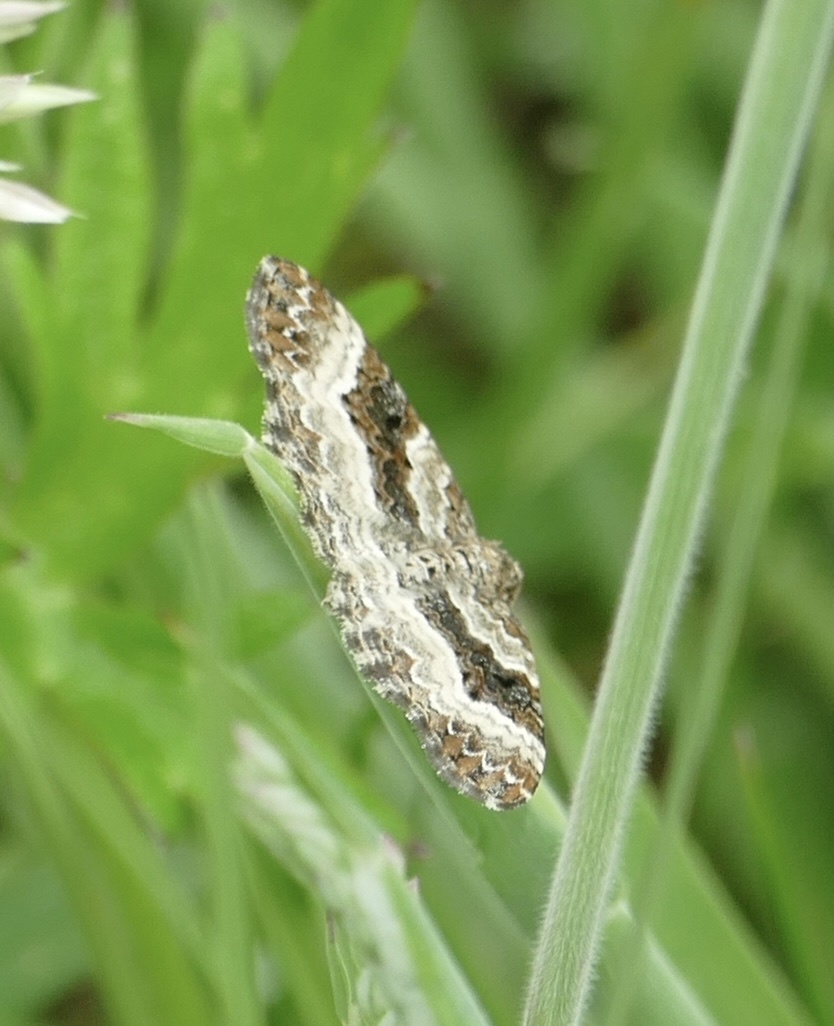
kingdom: Animalia
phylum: Arthropoda
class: Insecta
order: Lepidoptera
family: Geometridae
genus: Epirrhoe
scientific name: Epirrhoe alternata
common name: Common carpet
